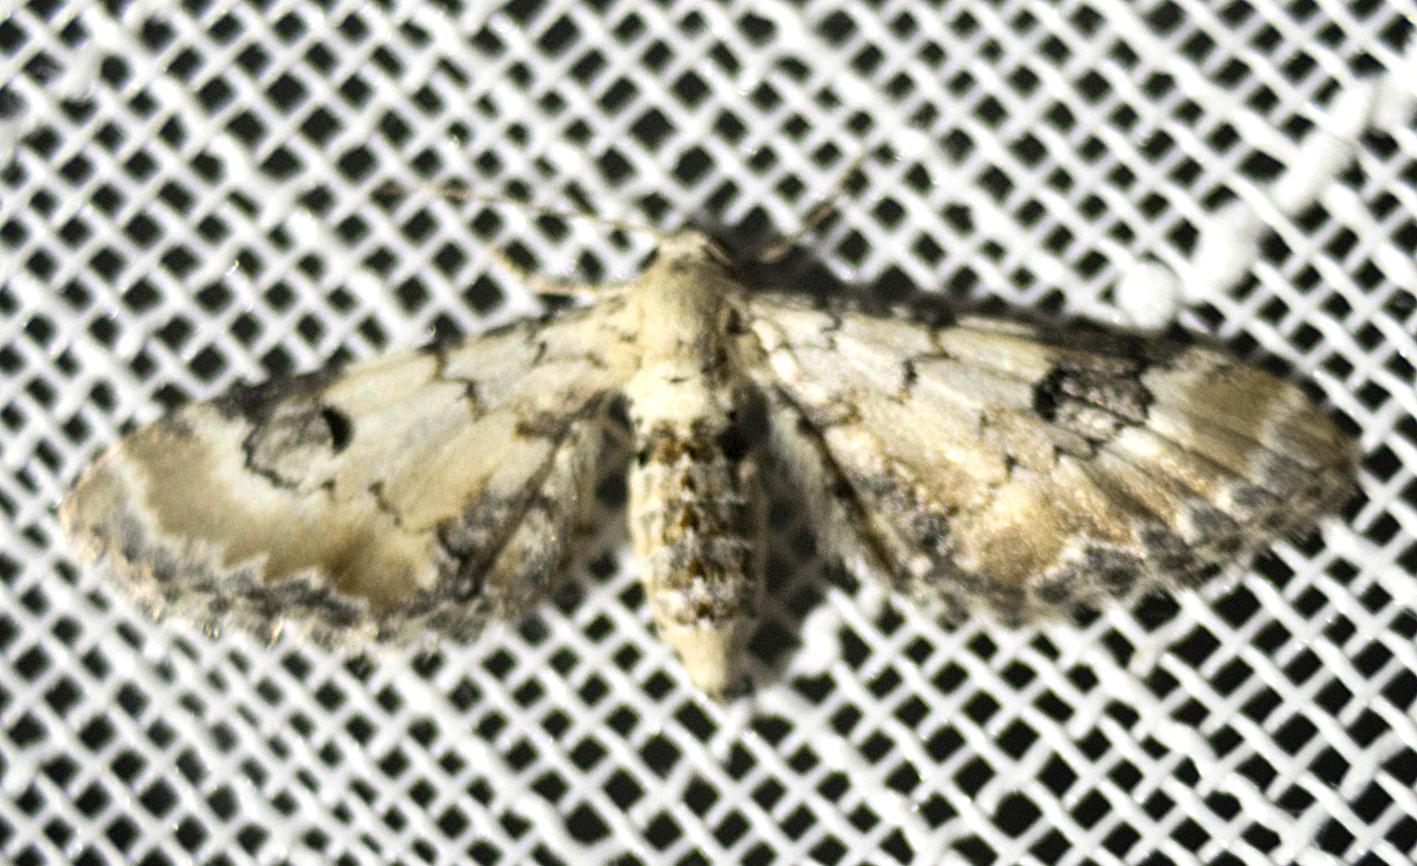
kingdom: Animalia
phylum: Arthropoda
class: Insecta
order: Lepidoptera
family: Geometridae
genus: Eupithecia
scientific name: Eupithecia centaureata
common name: Lime-speck pug
